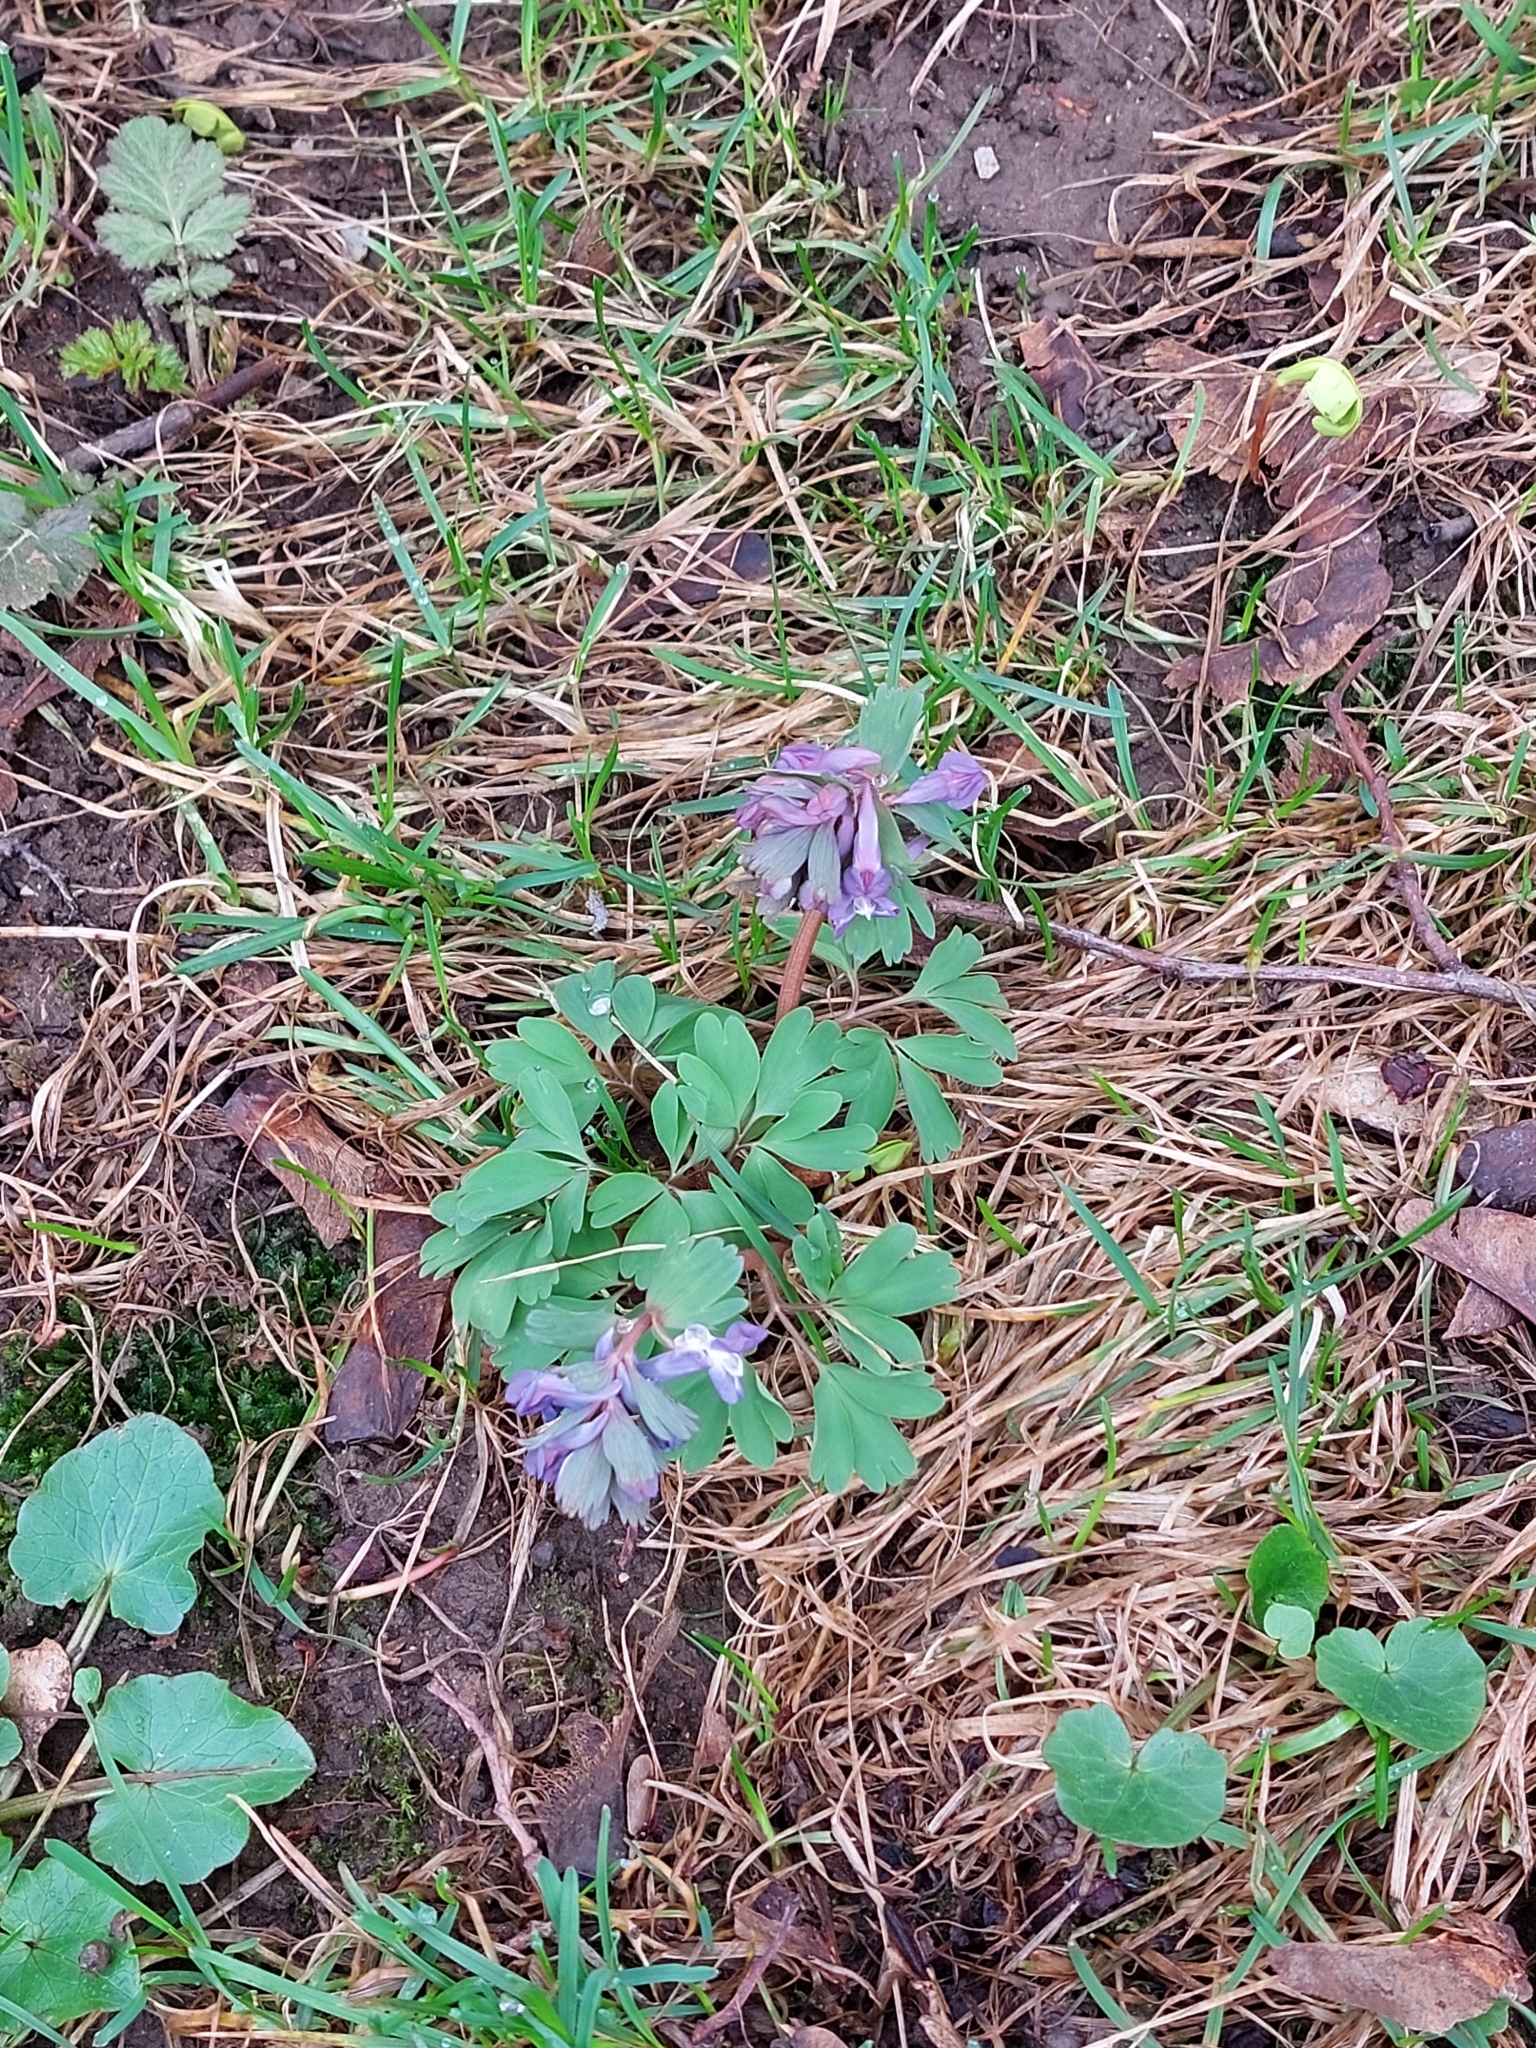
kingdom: Plantae
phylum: Tracheophyta
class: Magnoliopsida
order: Ranunculales
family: Papaveraceae
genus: Corydalis
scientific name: Corydalis solida
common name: Bird-in-a-bush
